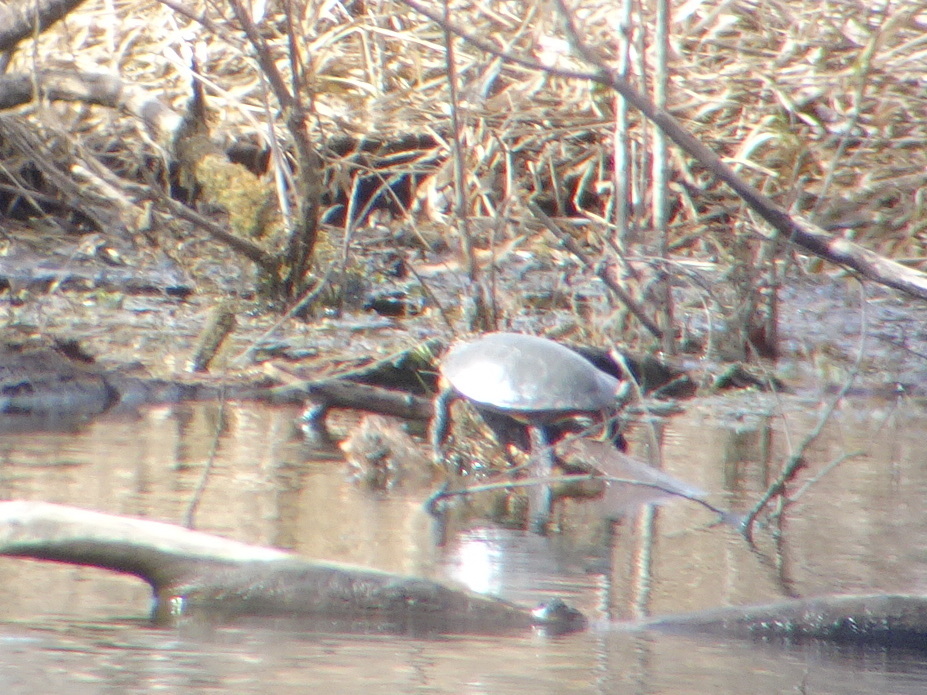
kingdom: Animalia
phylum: Chordata
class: Testudines
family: Emydidae
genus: Chrysemys
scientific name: Chrysemys picta
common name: Painted turtle
